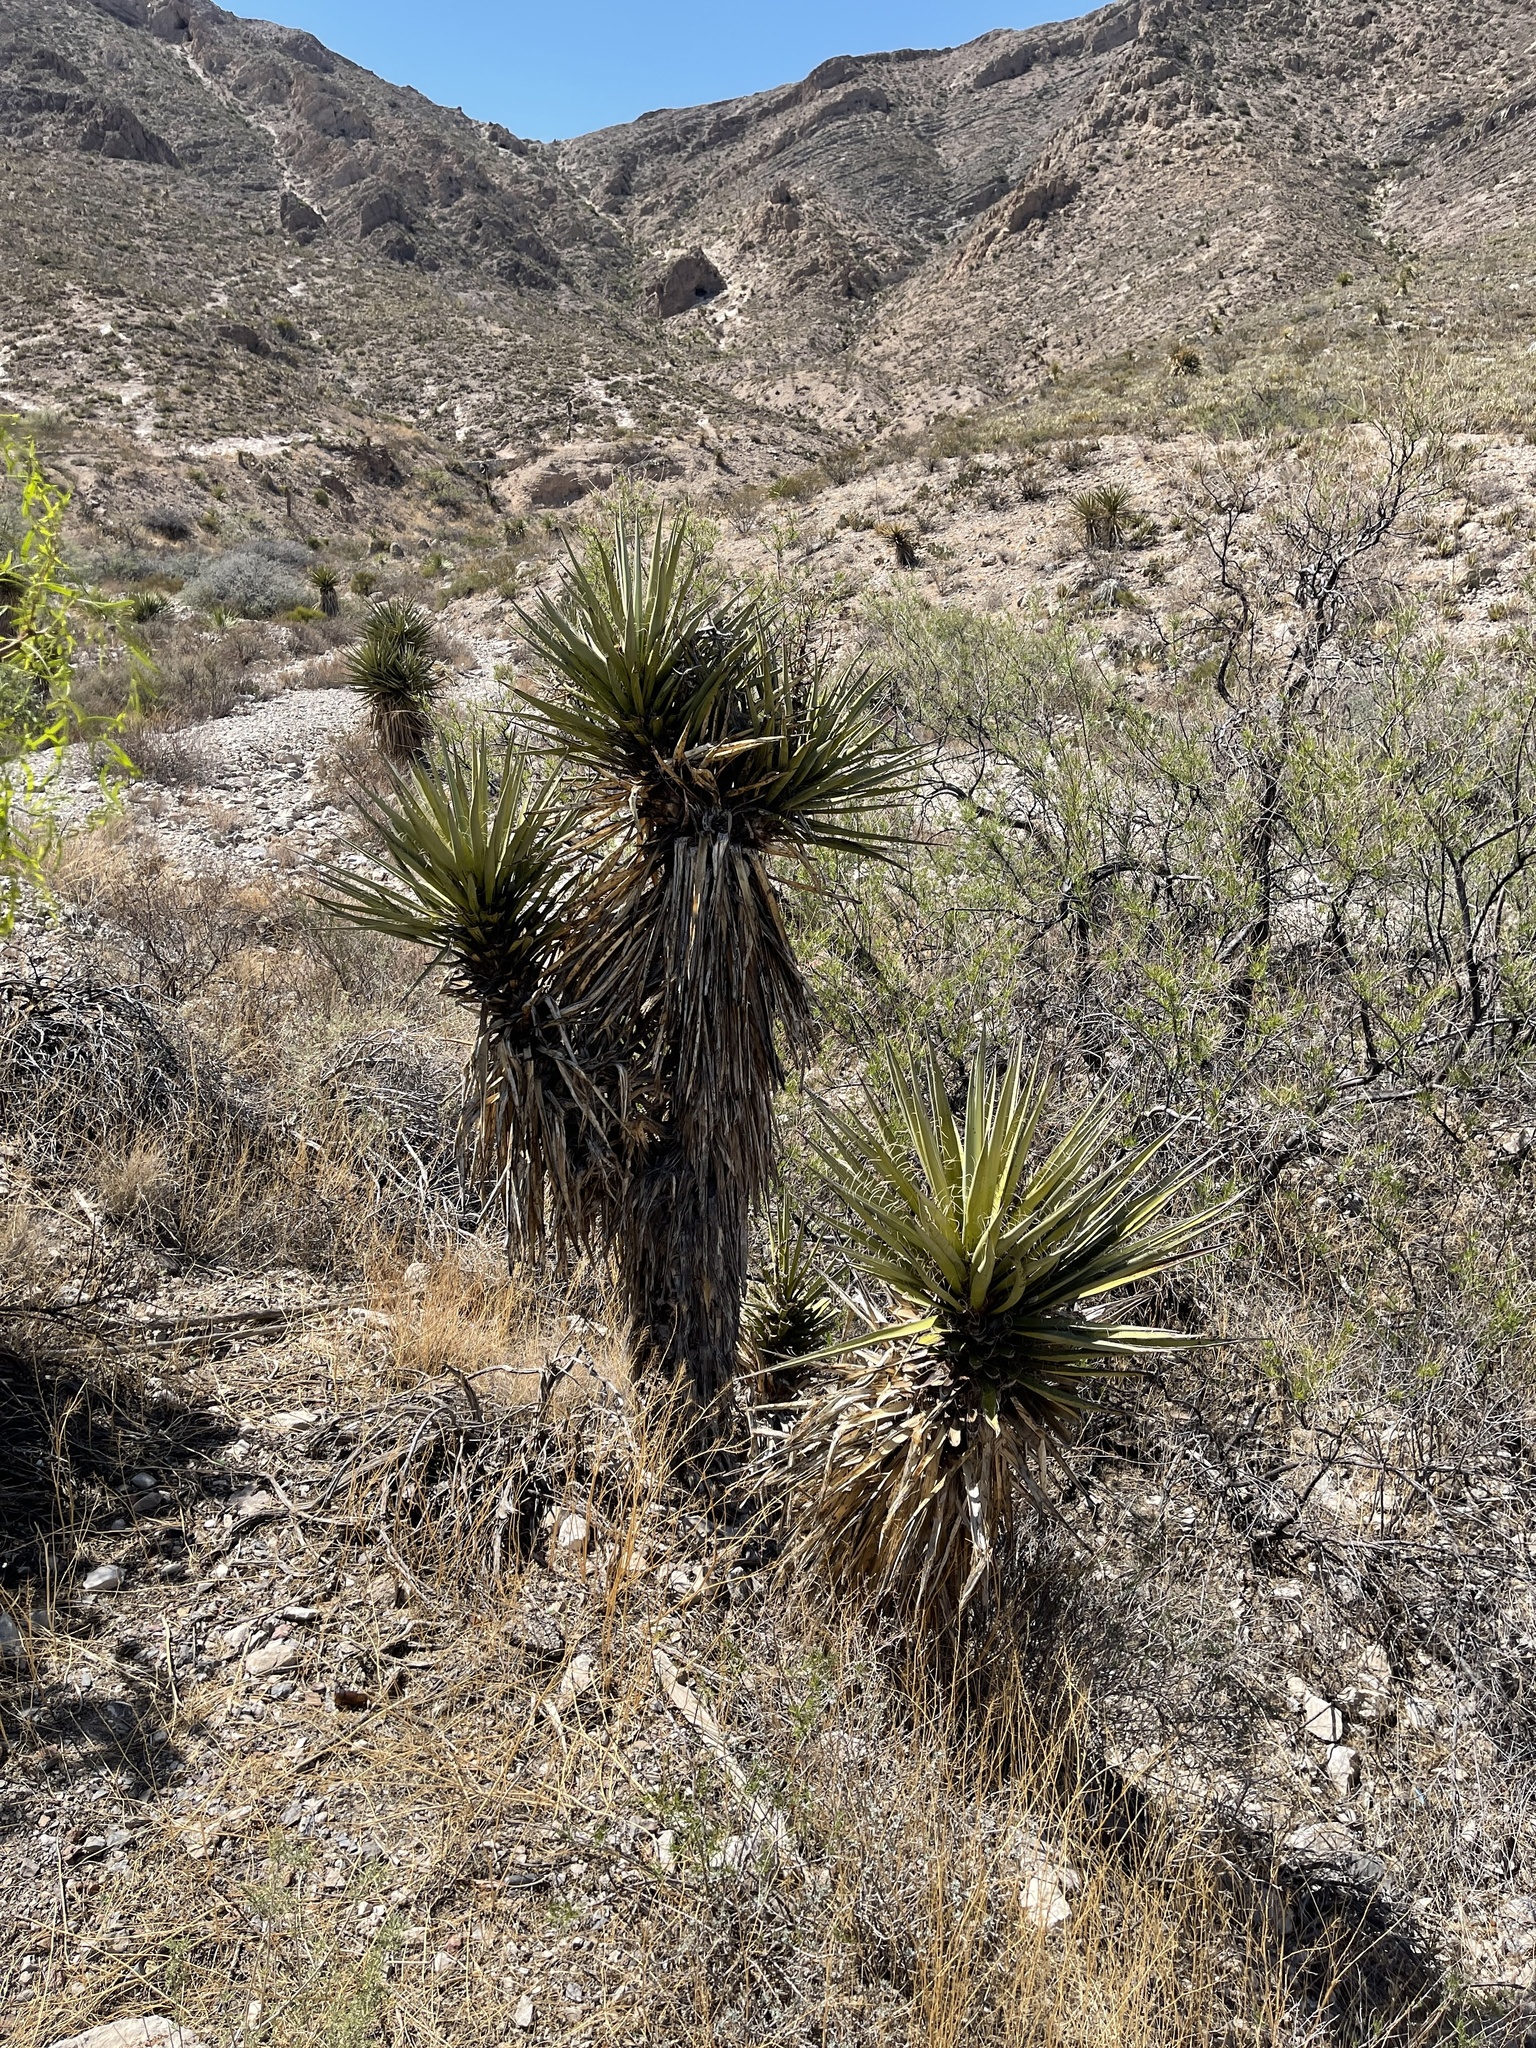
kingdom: Plantae
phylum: Tracheophyta
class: Liliopsida
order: Asparagales
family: Asparagaceae
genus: Yucca
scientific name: Yucca treculiana
